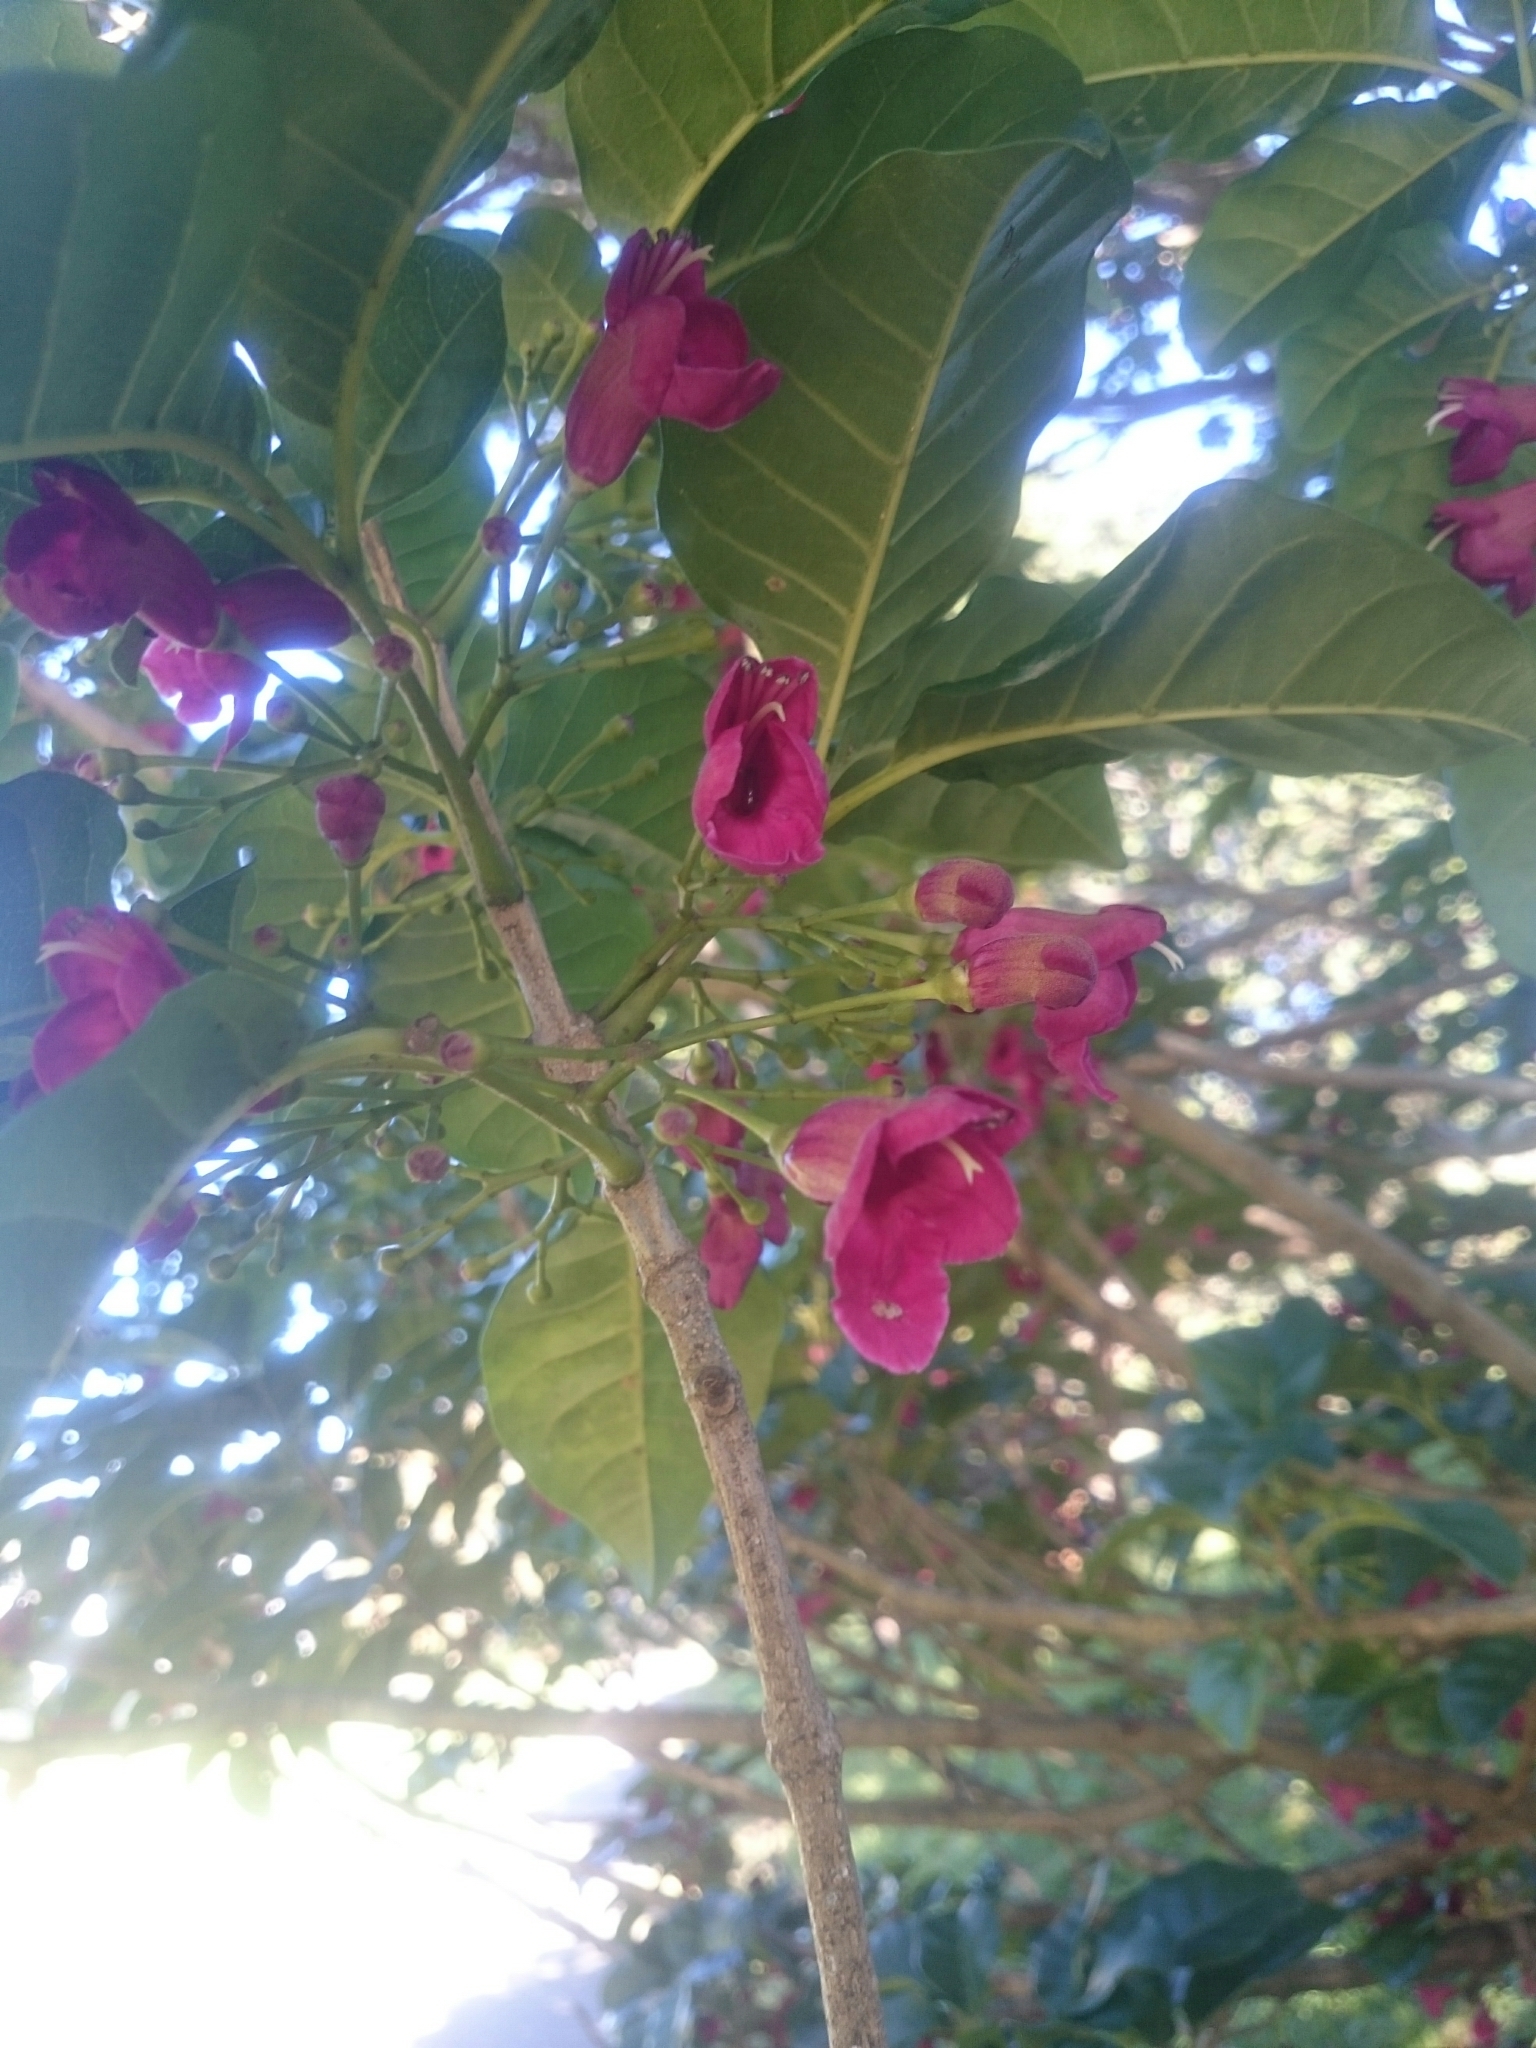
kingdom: Plantae
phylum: Tracheophyta
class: Magnoliopsida
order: Lamiales
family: Lamiaceae
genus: Vitex
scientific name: Vitex lucens
